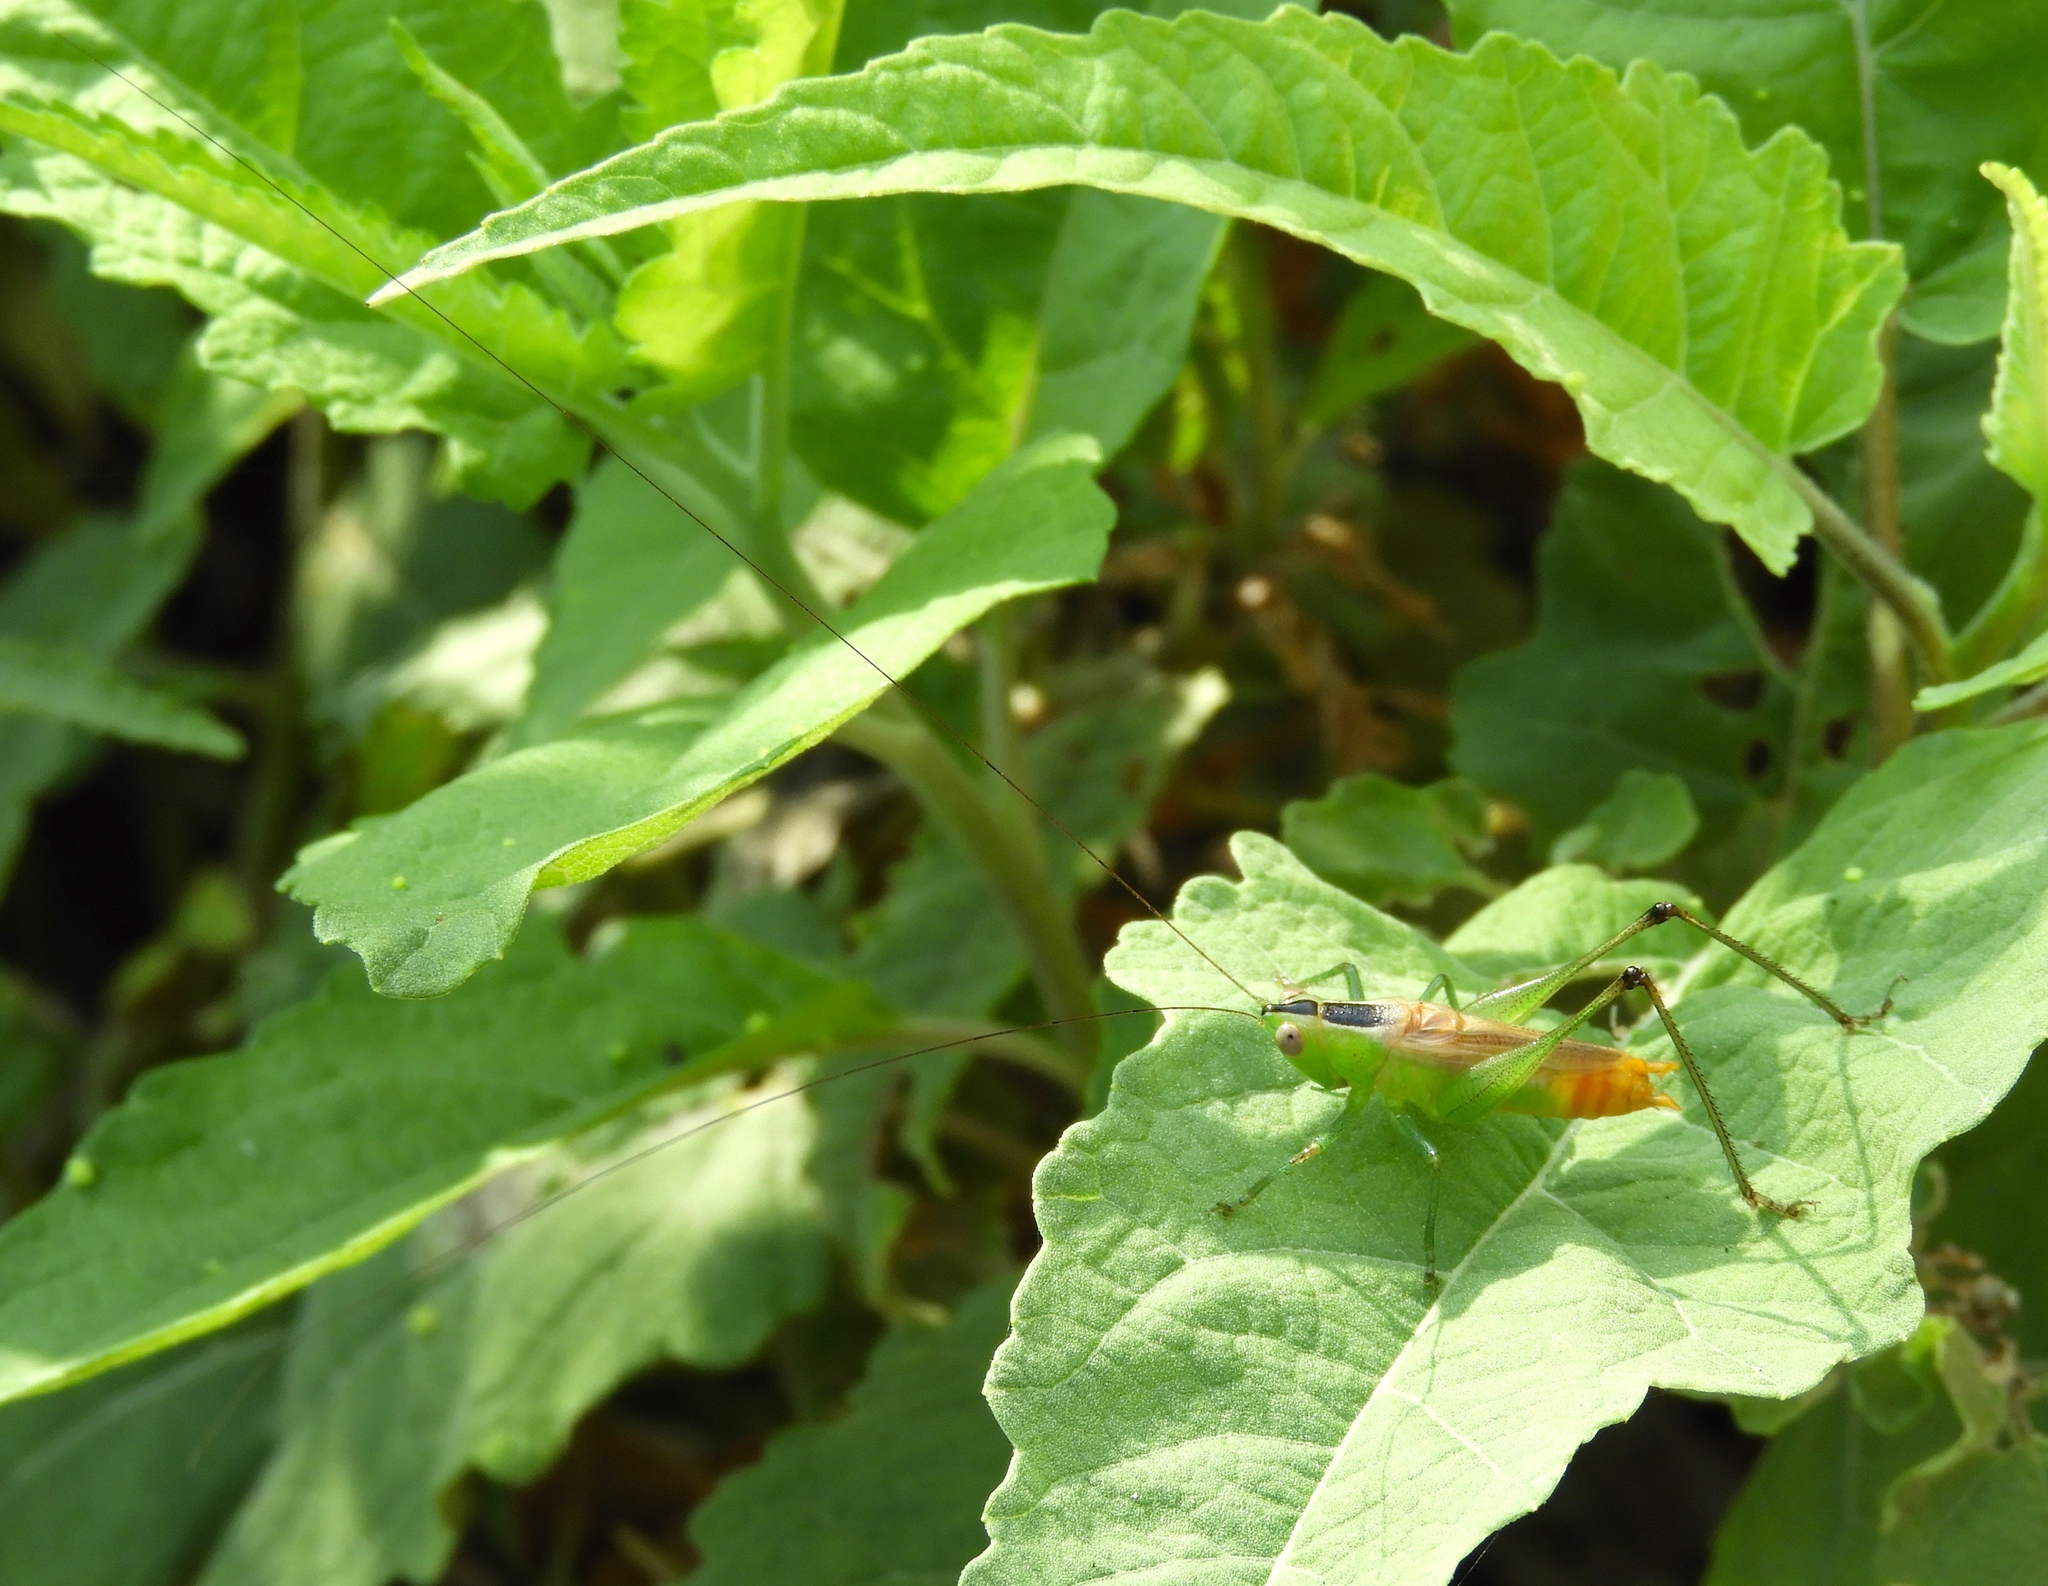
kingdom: Animalia
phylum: Arthropoda
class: Insecta
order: Orthoptera
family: Tettigoniidae
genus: Conocephalus
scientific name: Conocephalus ictus
